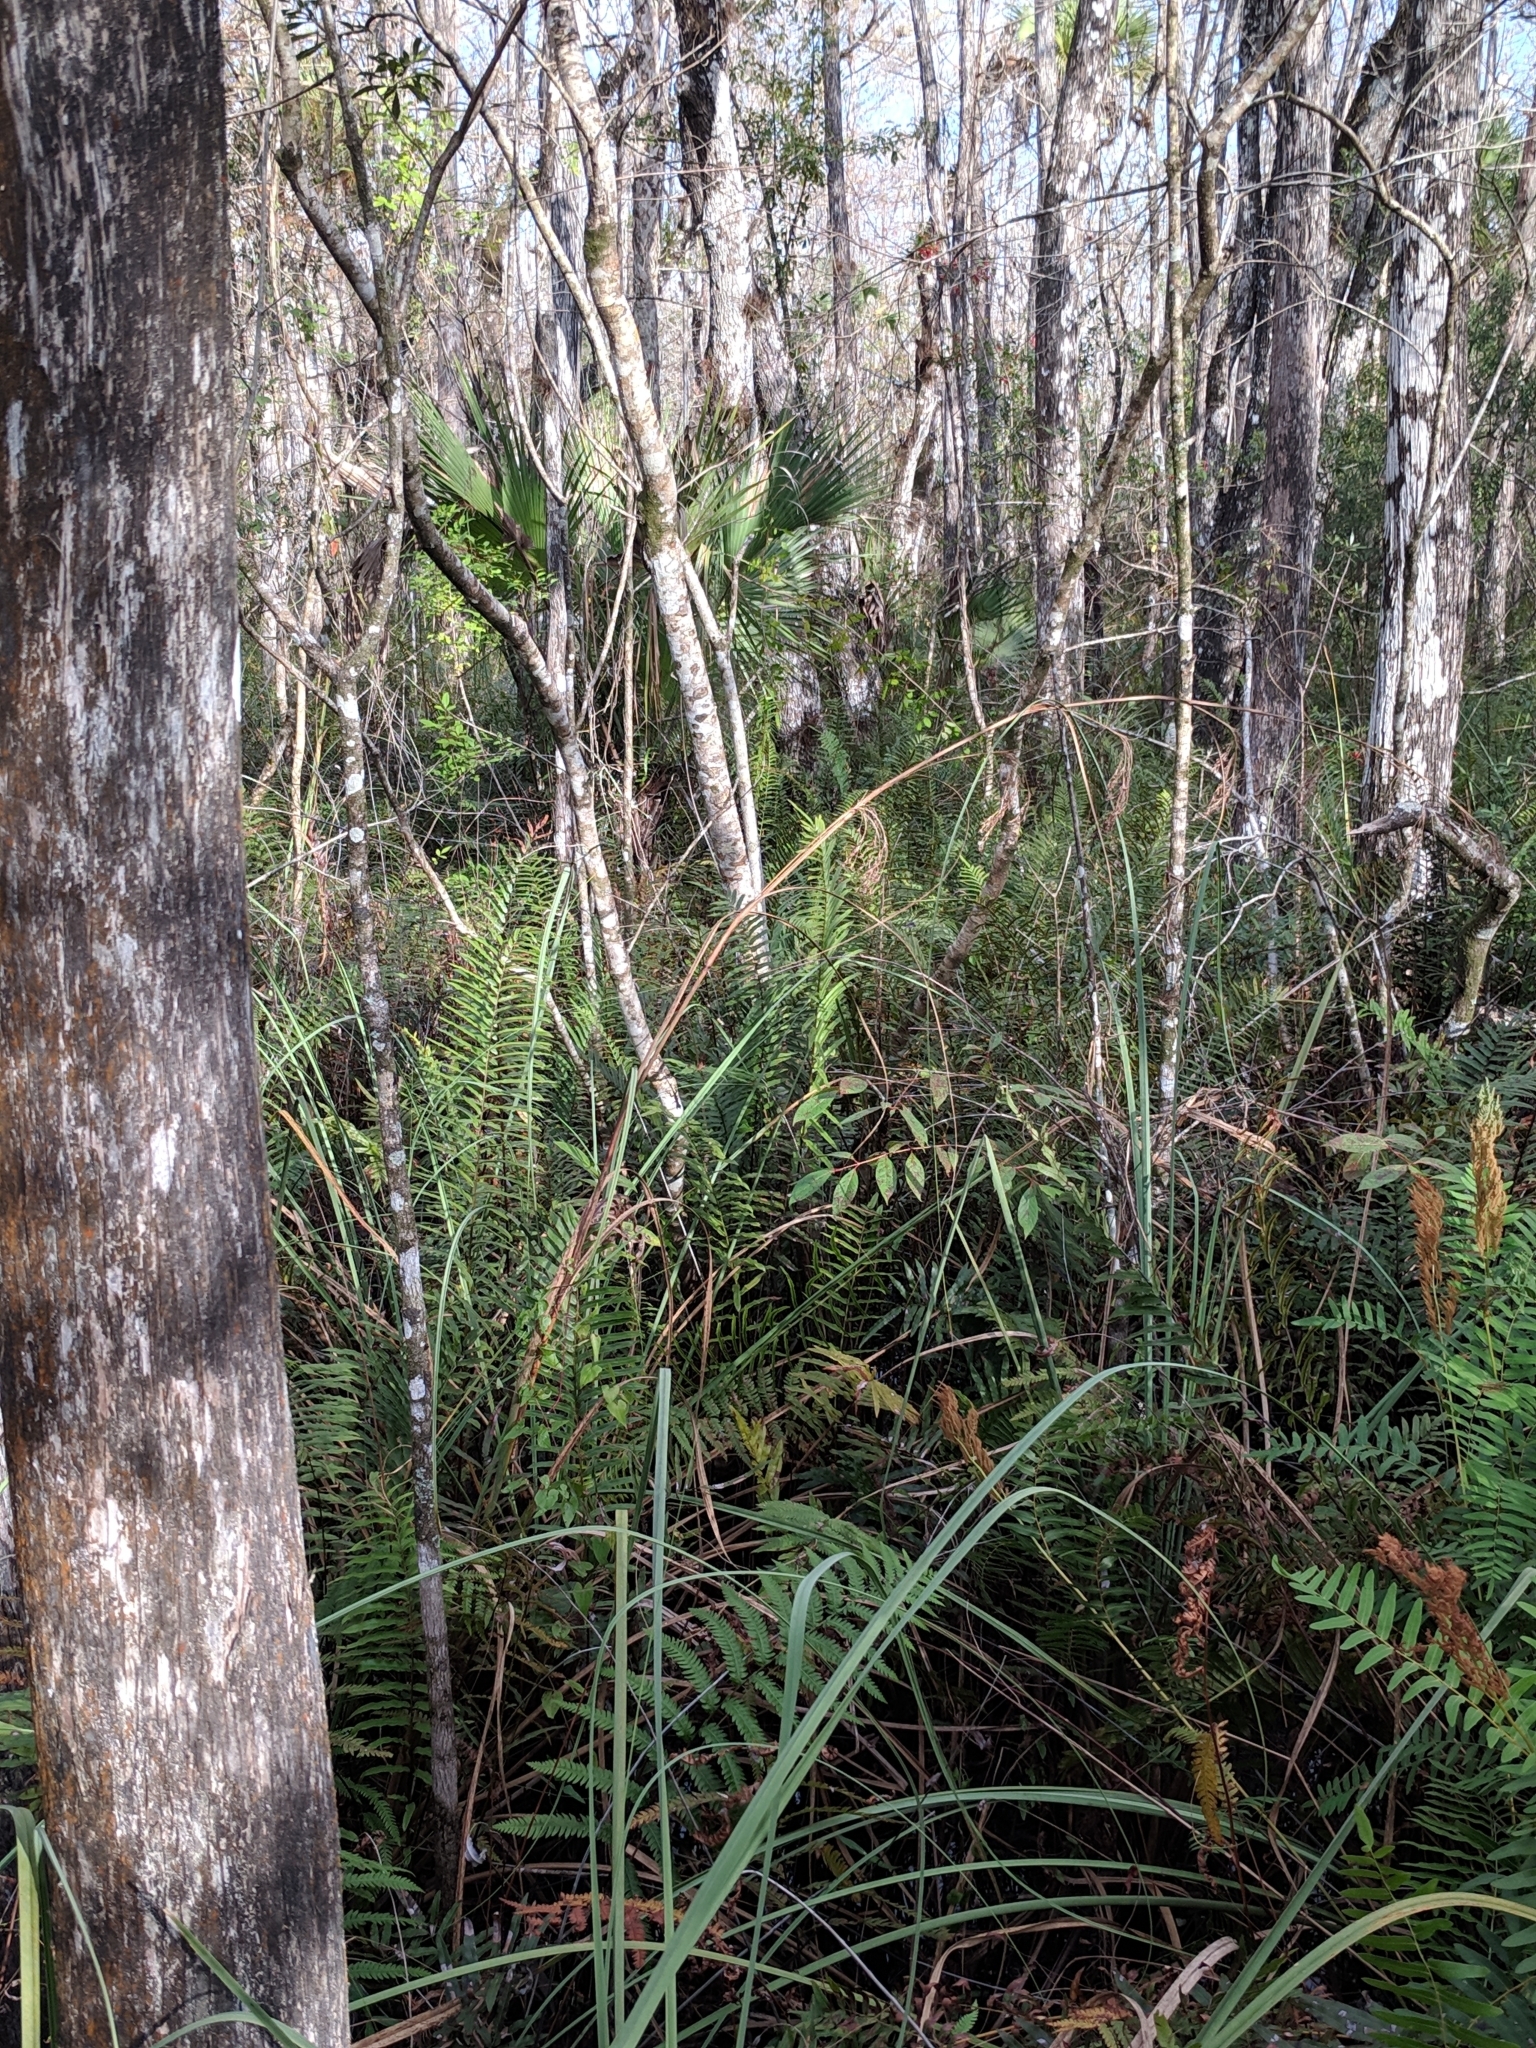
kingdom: Plantae
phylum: Tracheophyta
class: Liliopsida
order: Poales
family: Cyperaceae
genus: Cladium
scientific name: Cladium mariscus
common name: Great fen-sedge
